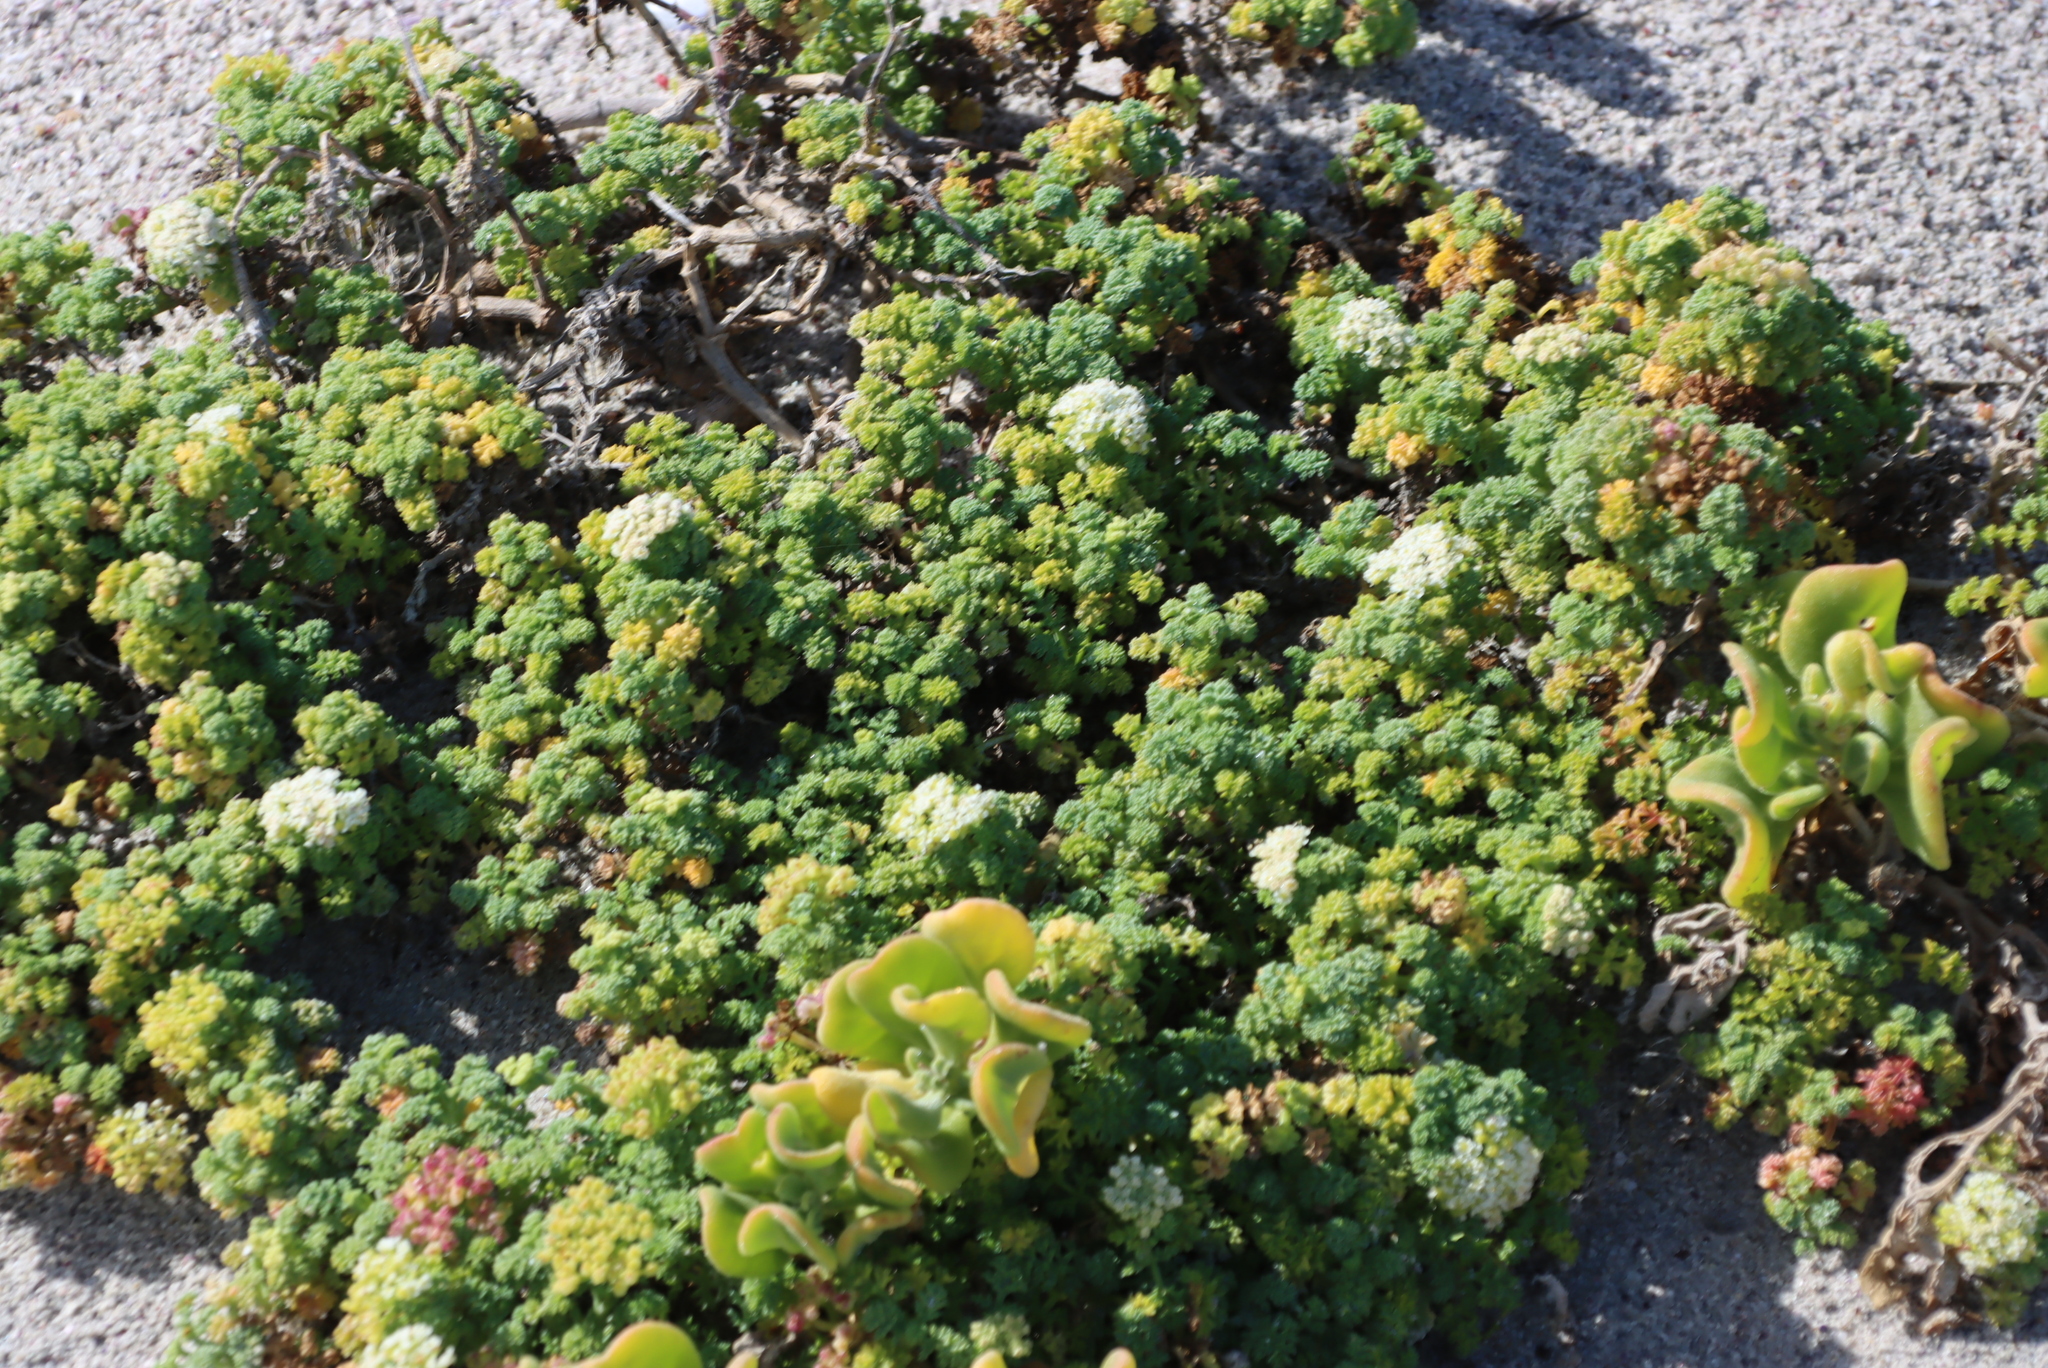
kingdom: Plantae
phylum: Tracheophyta
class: Magnoliopsida
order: Apiales
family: Apiaceae
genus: Dasispermum
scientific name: Dasispermum suffruticosum
